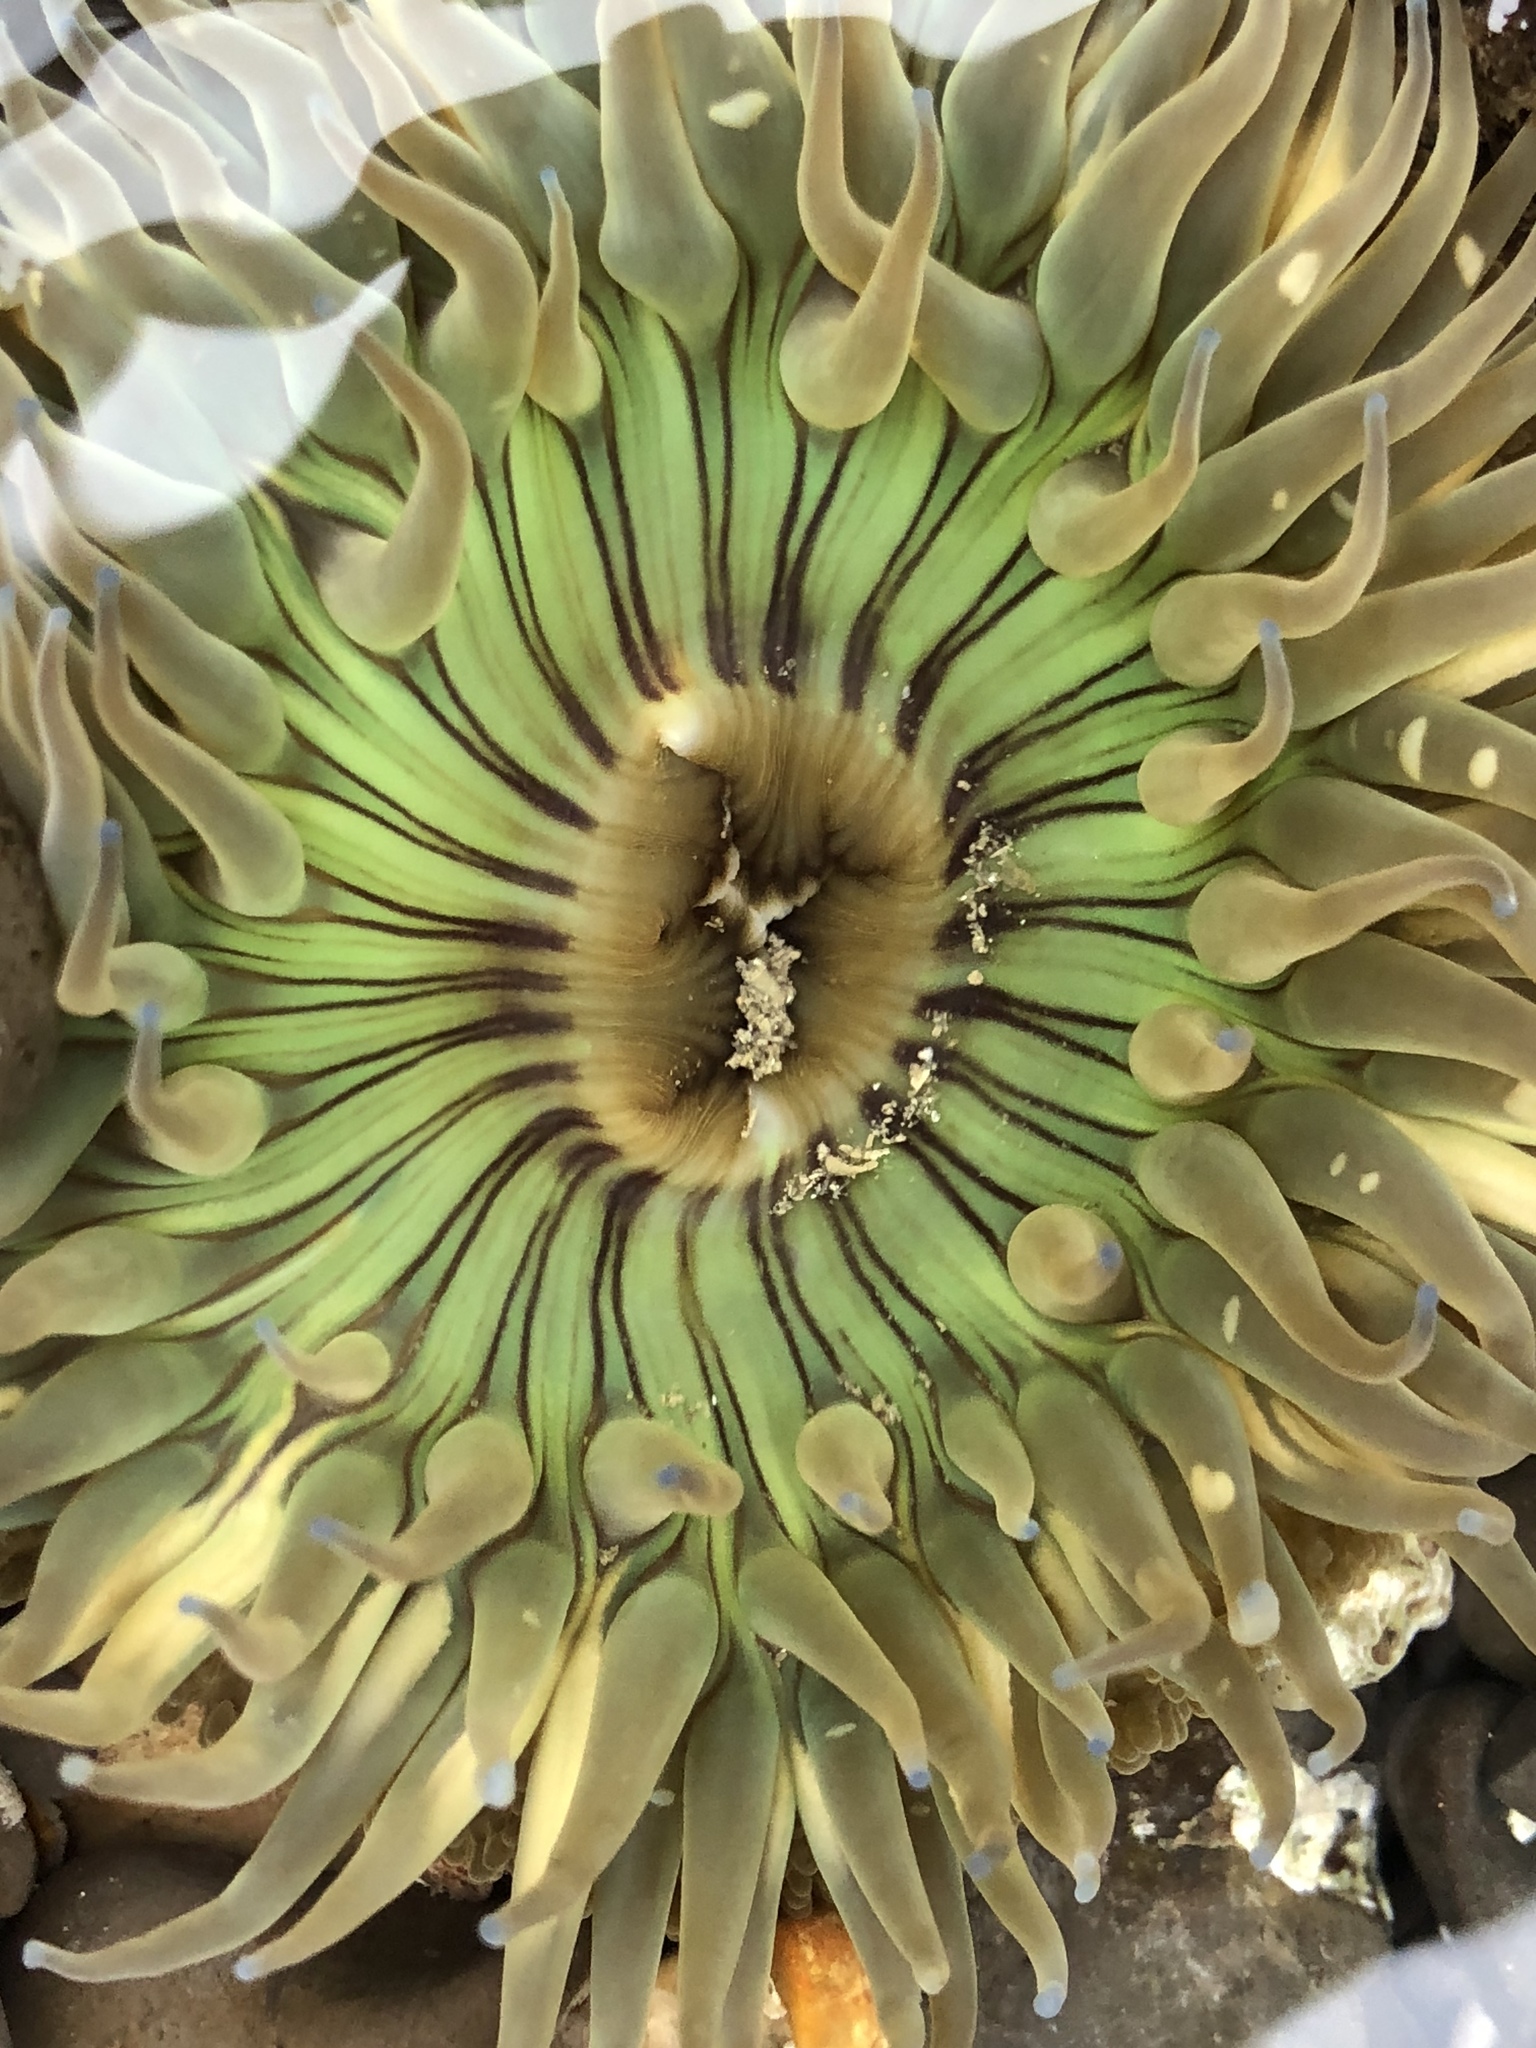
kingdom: Animalia
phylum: Cnidaria
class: Anthozoa
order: Actiniaria
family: Actiniidae
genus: Anthopleura
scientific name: Anthopleura sola
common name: Sun anemone
